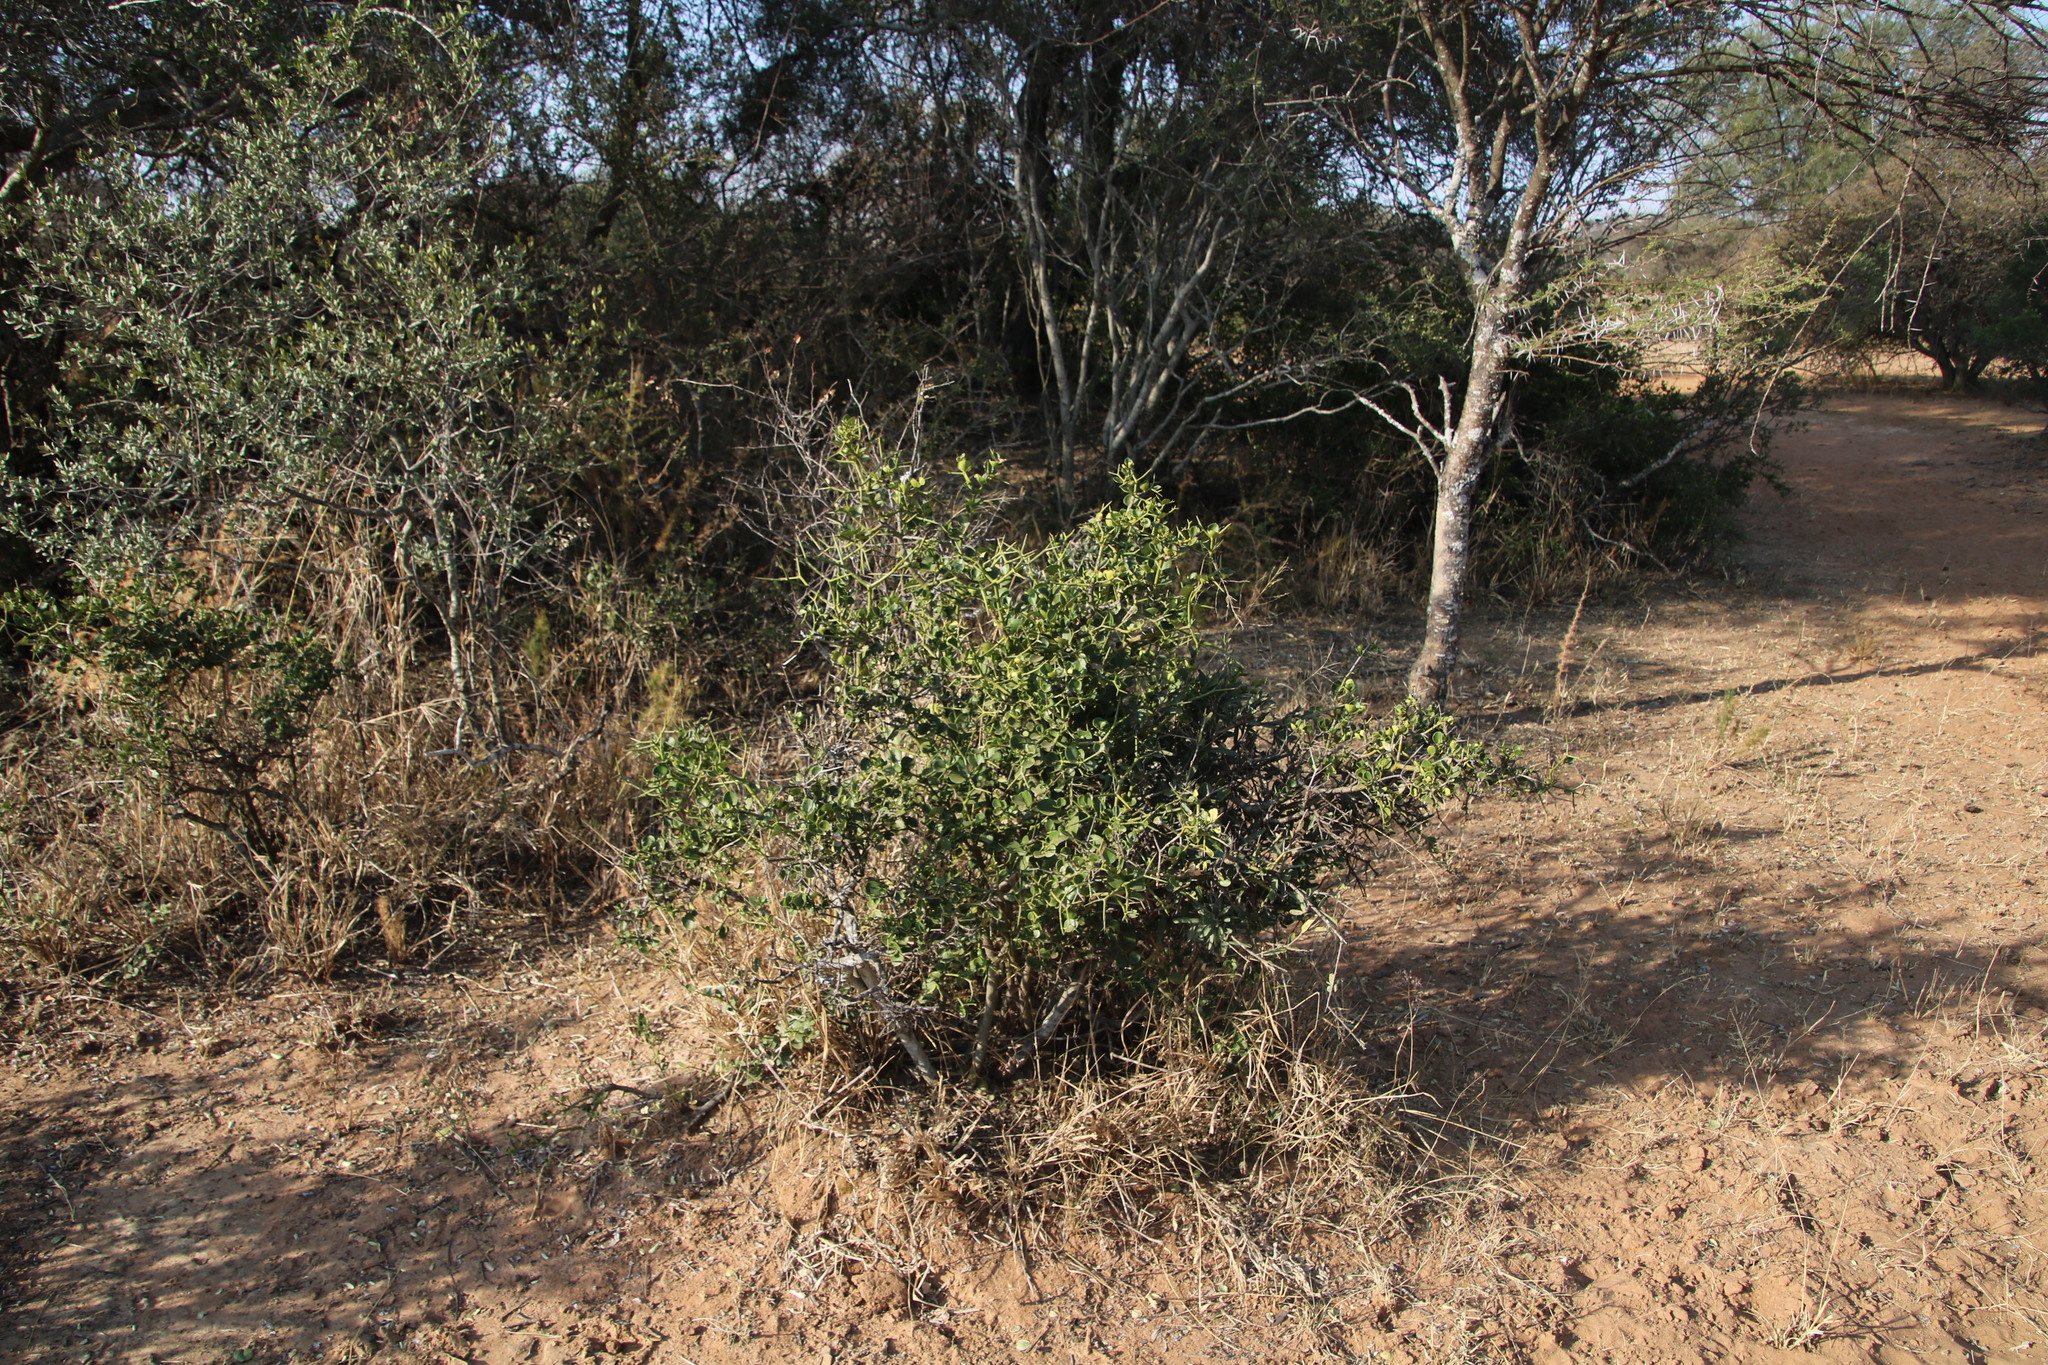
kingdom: Plantae
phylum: Tracheophyta
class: Magnoliopsida
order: Gentianales
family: Apocynaceae
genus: Carissa
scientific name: Carissa bispinosa
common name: Forest num-num
